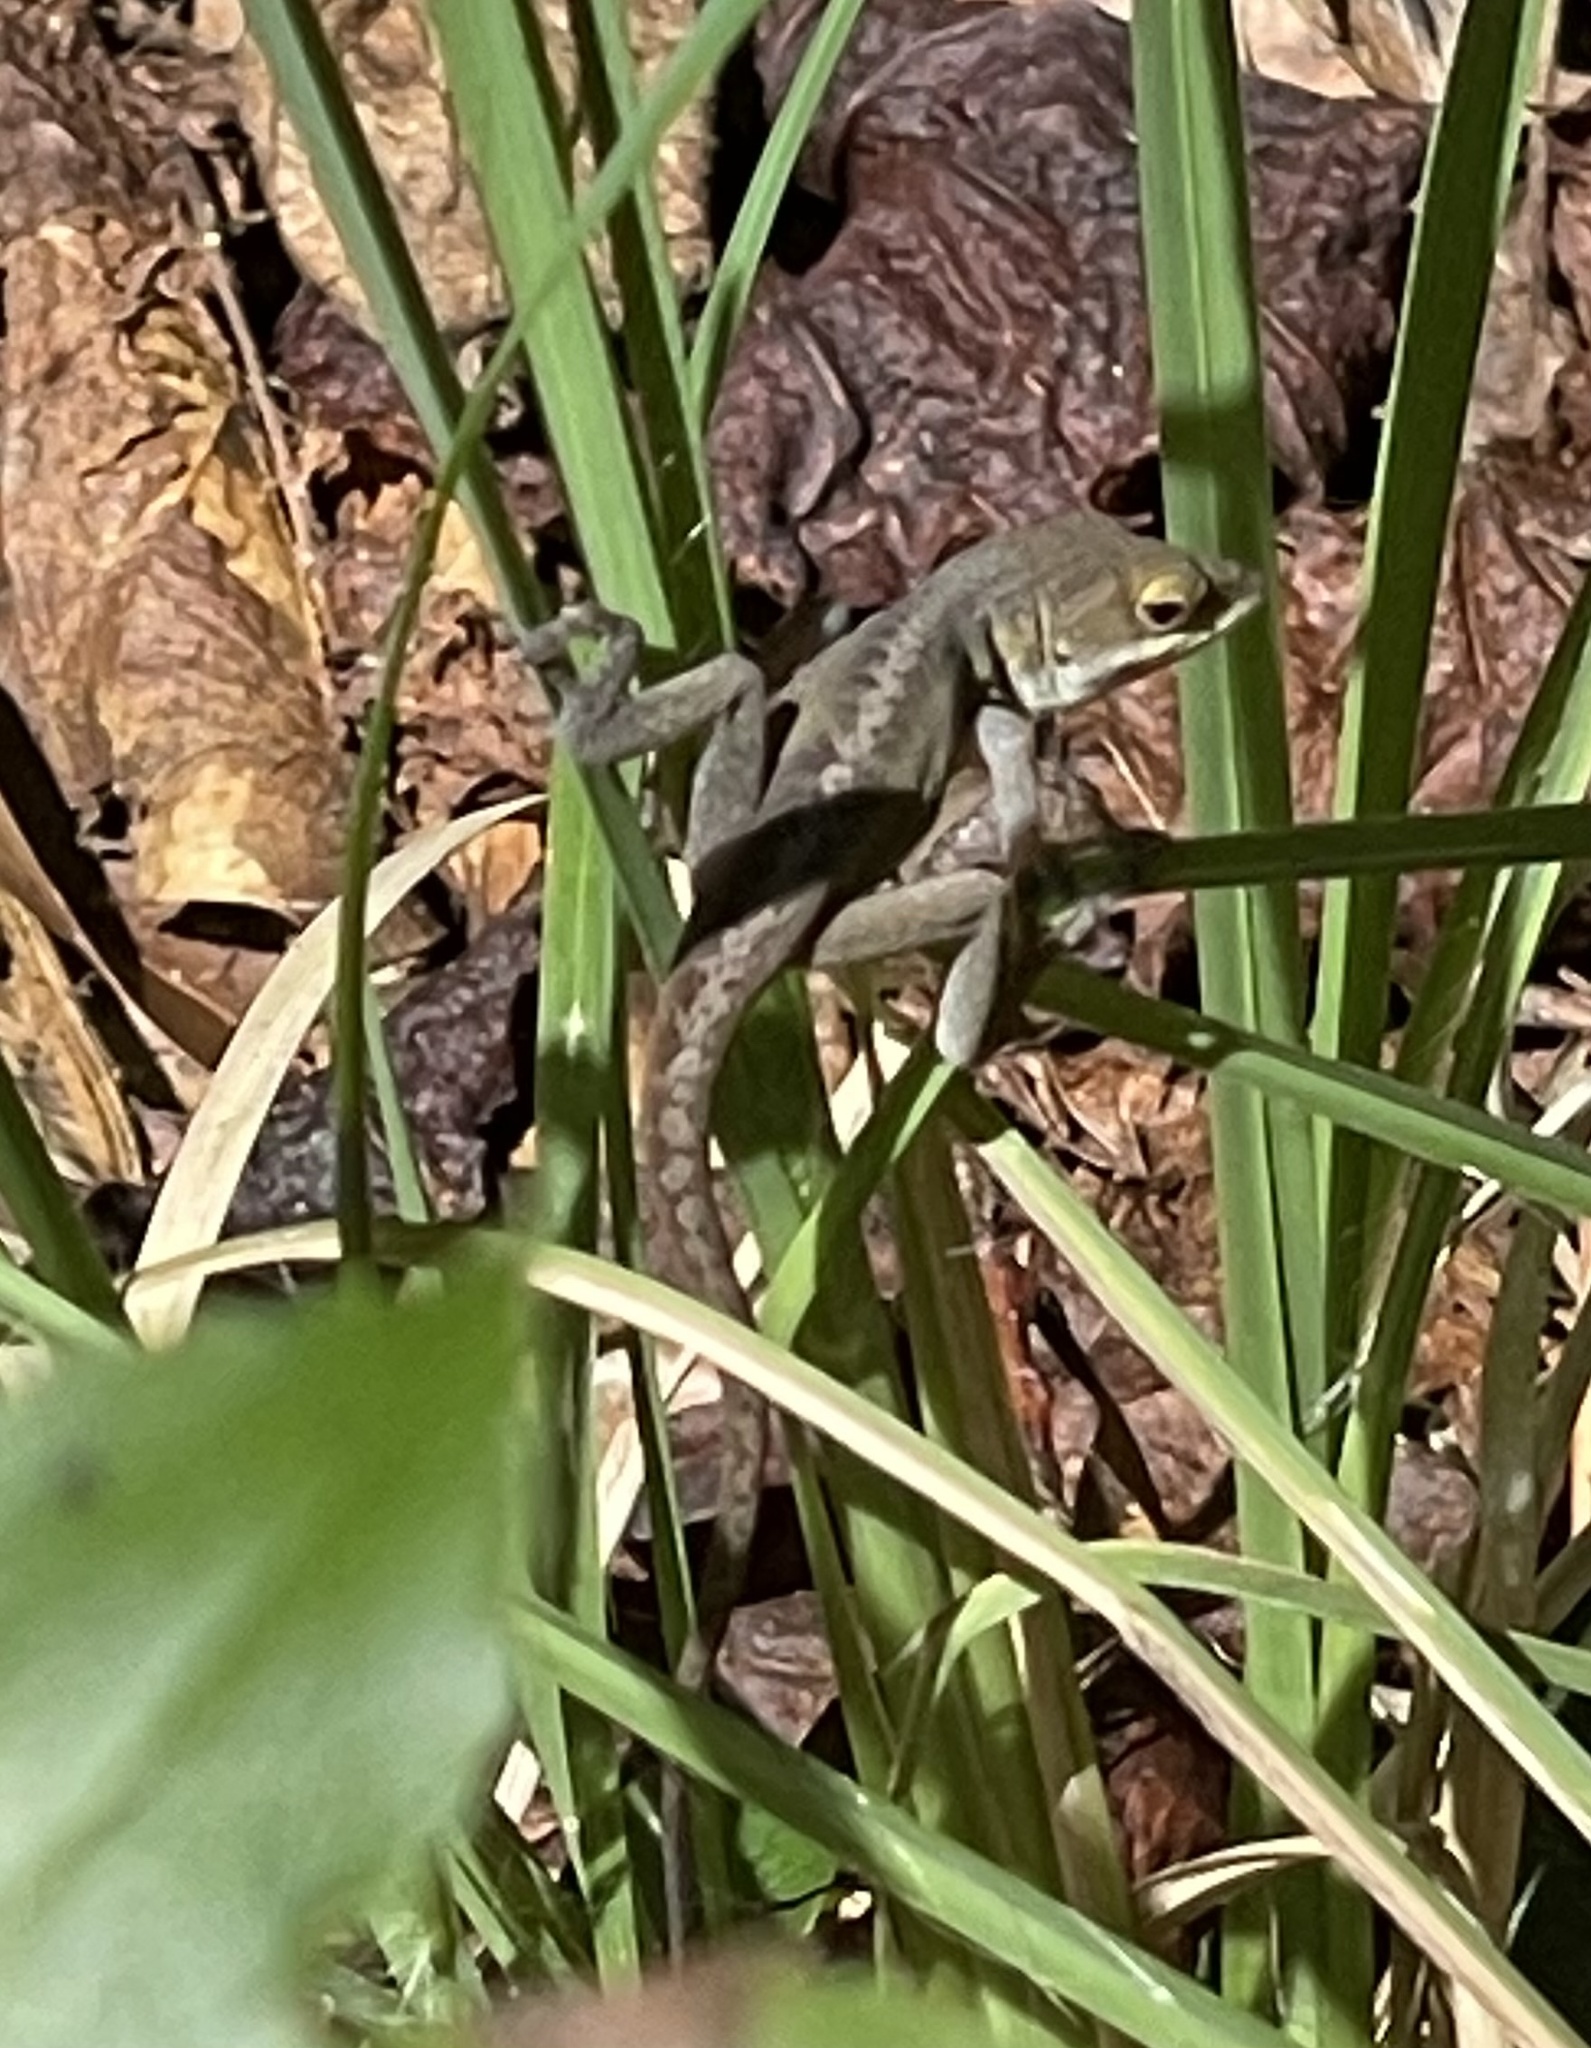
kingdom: Animalia
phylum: Chordata
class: Squamata
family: Dactyloidae
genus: Anolis
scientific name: Anolis carolinensis
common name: Green anole
